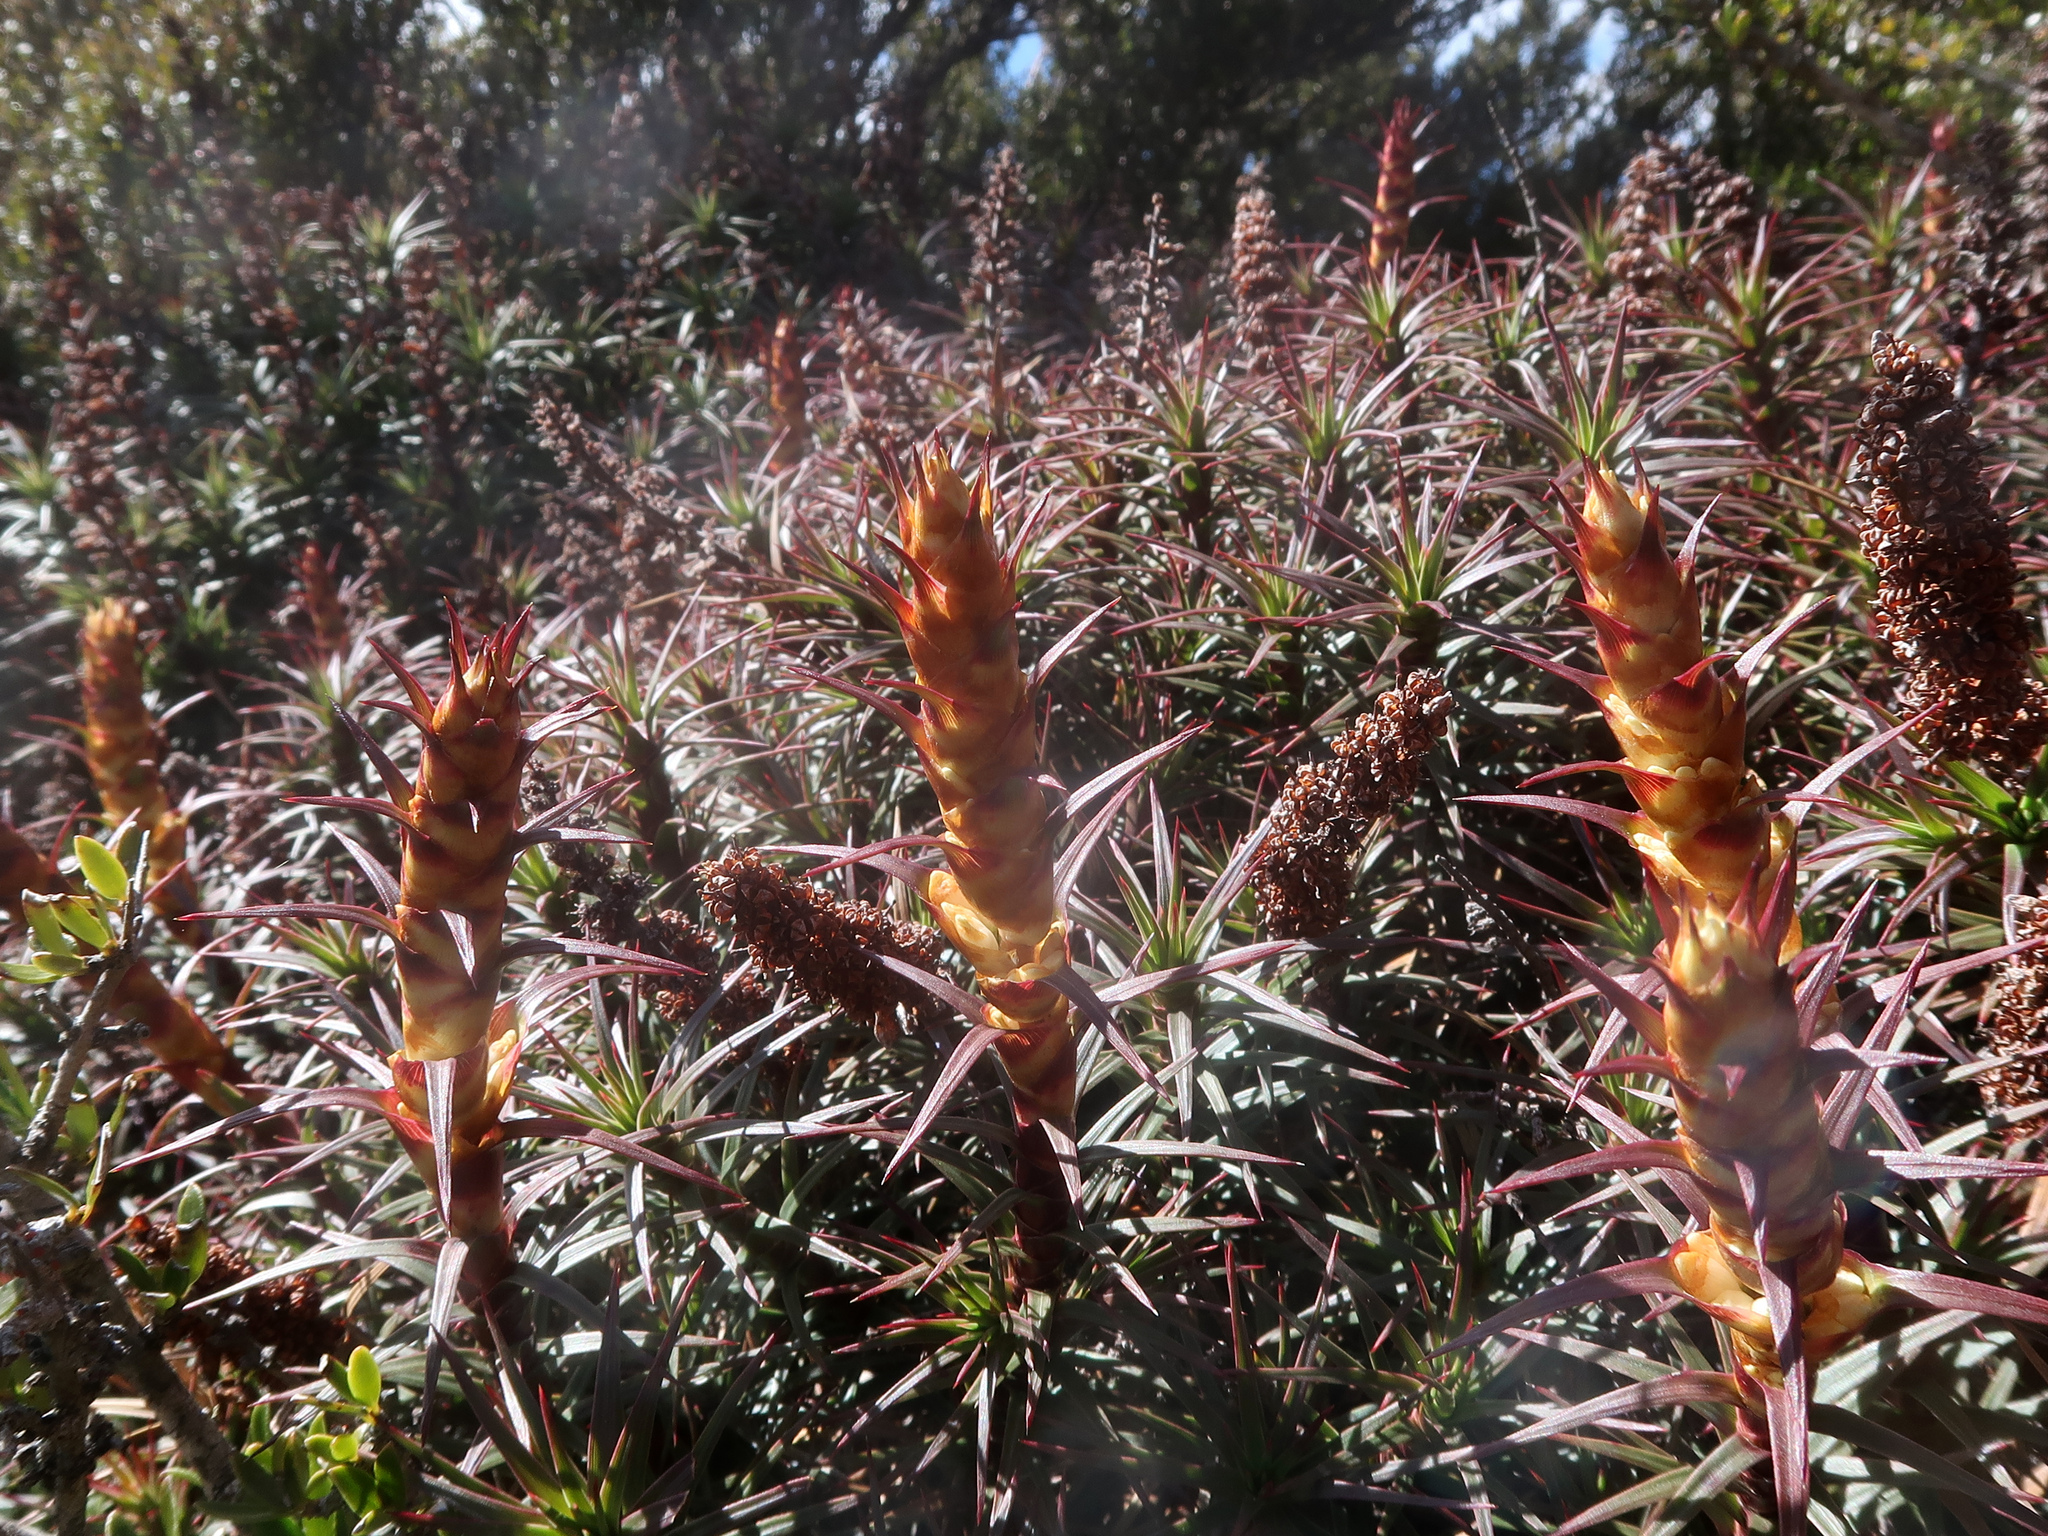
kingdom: Plantae
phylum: Tracheophyta
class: Magnoliopsida
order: Ericales
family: Ericaceae
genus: Dracophyllum
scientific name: Dracophyllum persistentifolium
